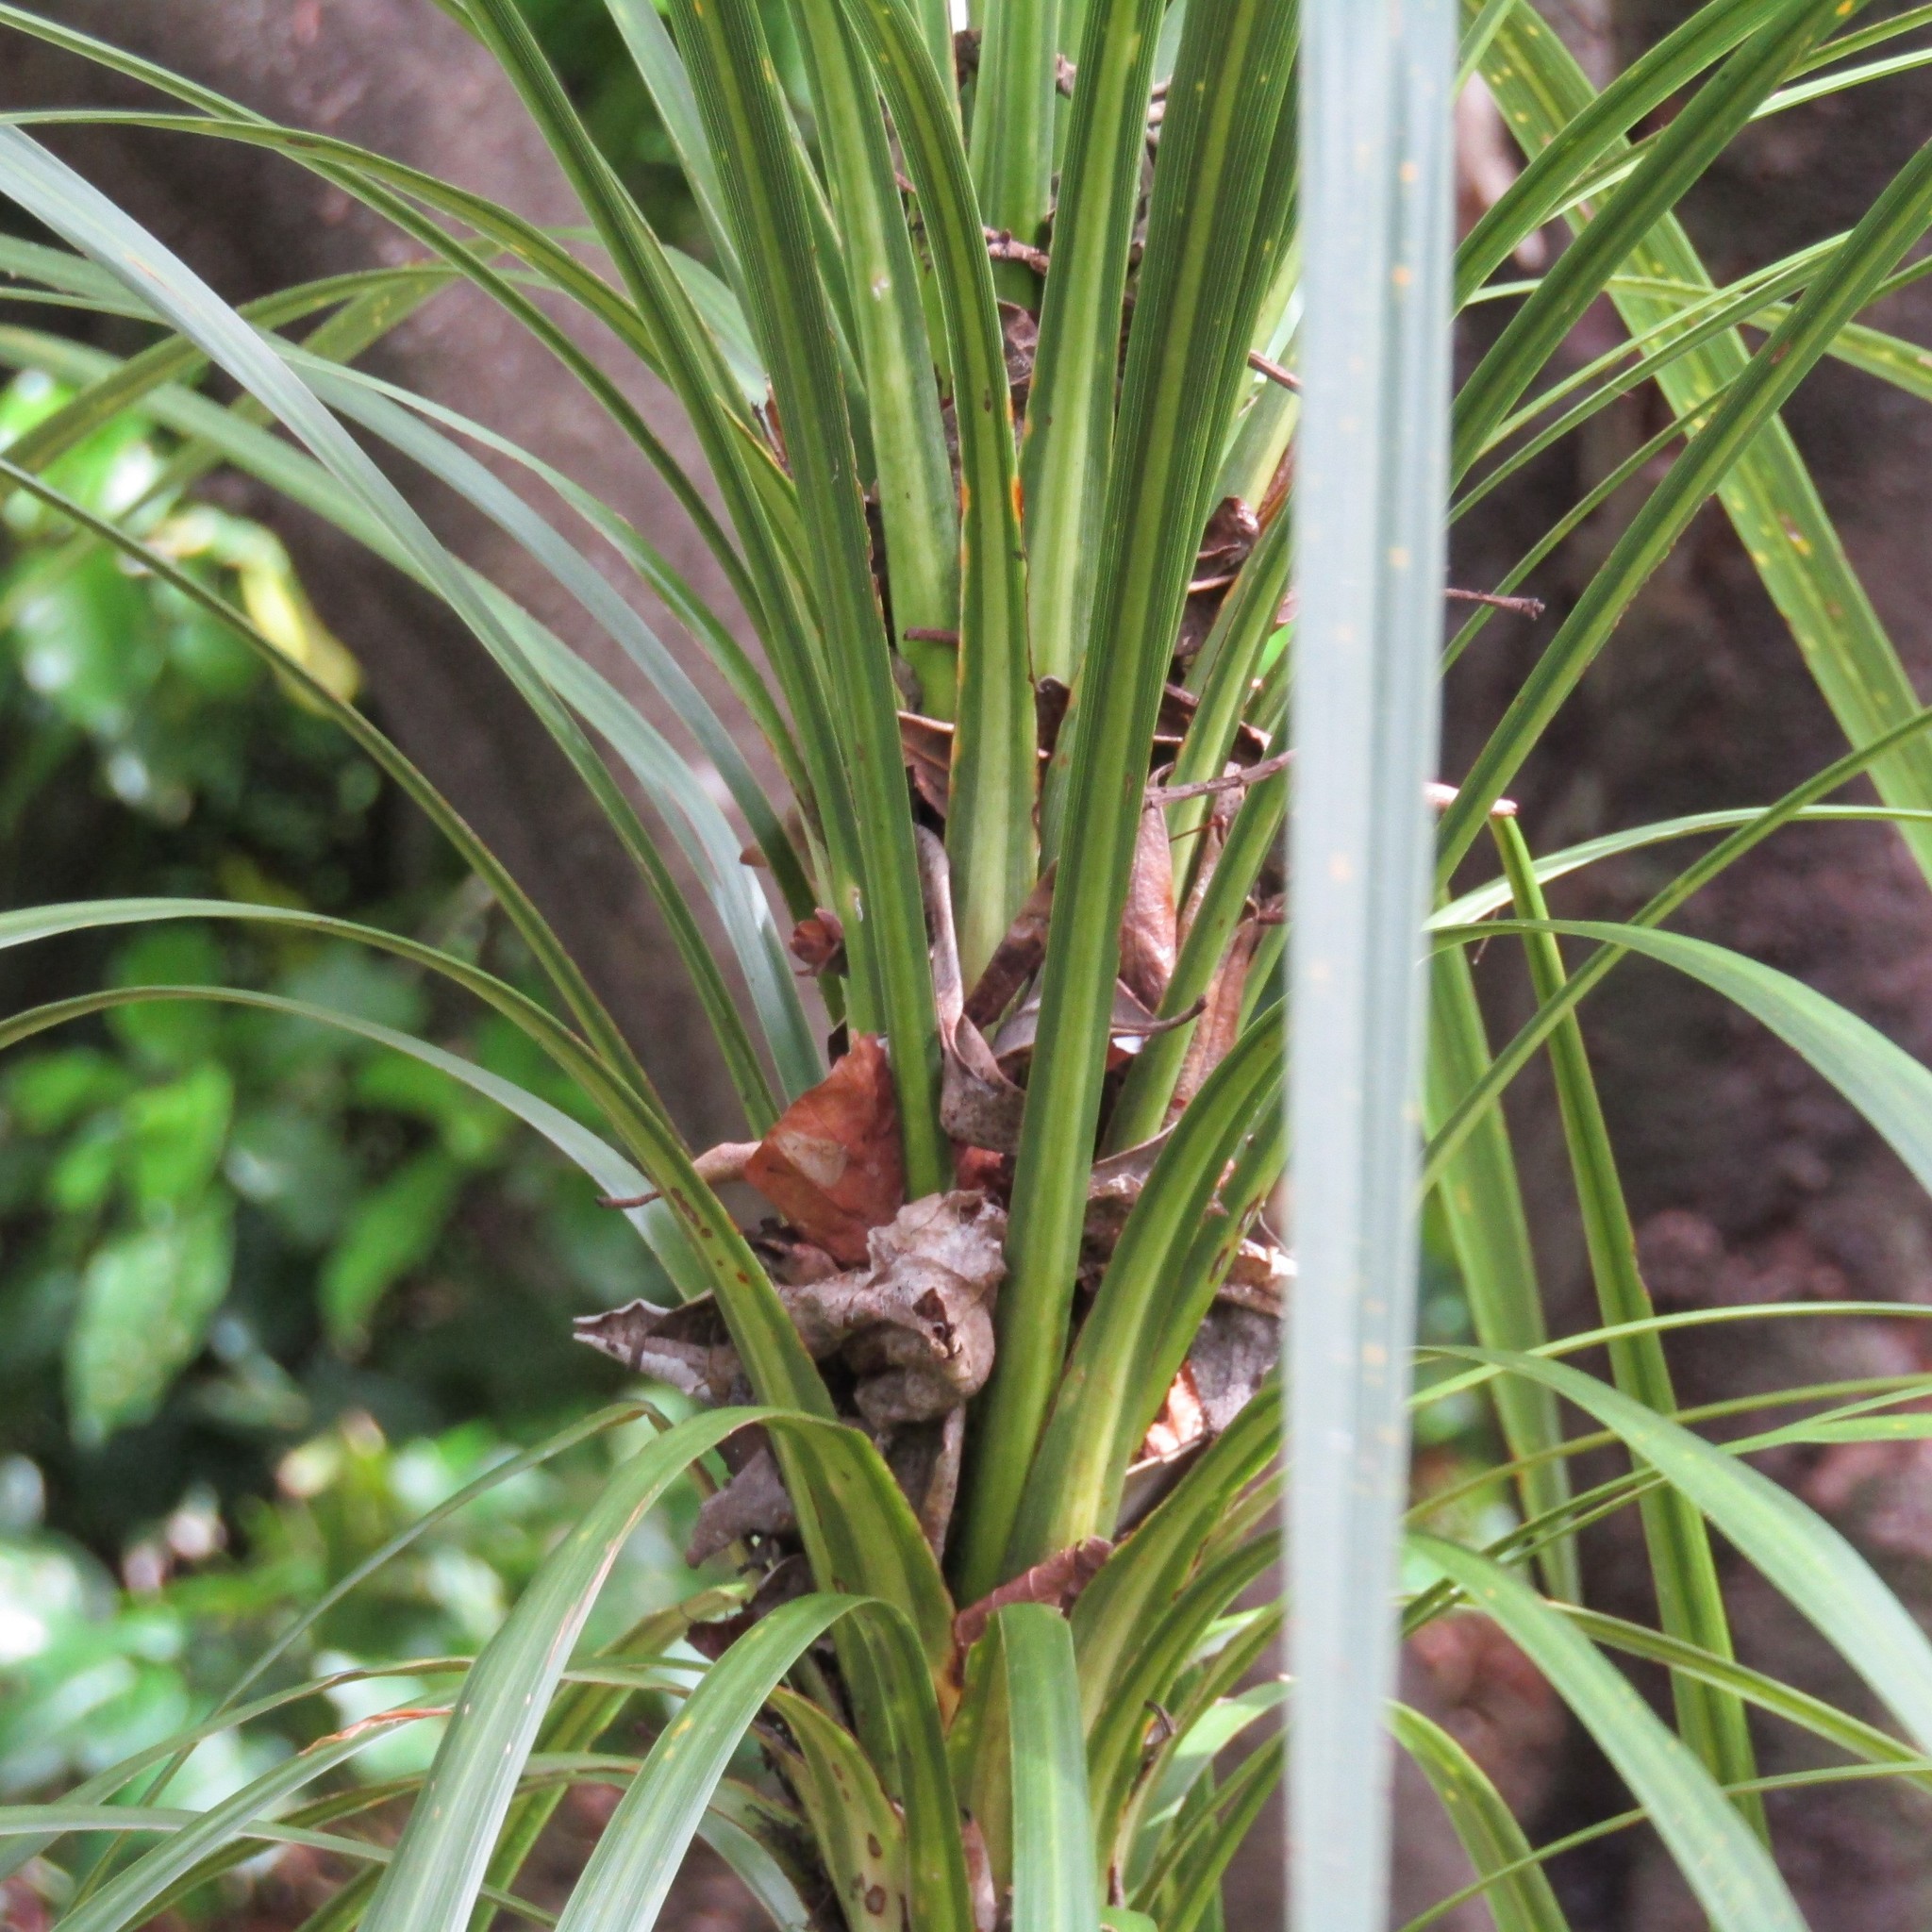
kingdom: Plantae
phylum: Tracheophyta
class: Liliopsida
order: Asparagales
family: Asparagaceae
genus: Cordyline
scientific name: Cordyline australis
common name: Cabbage-palm
